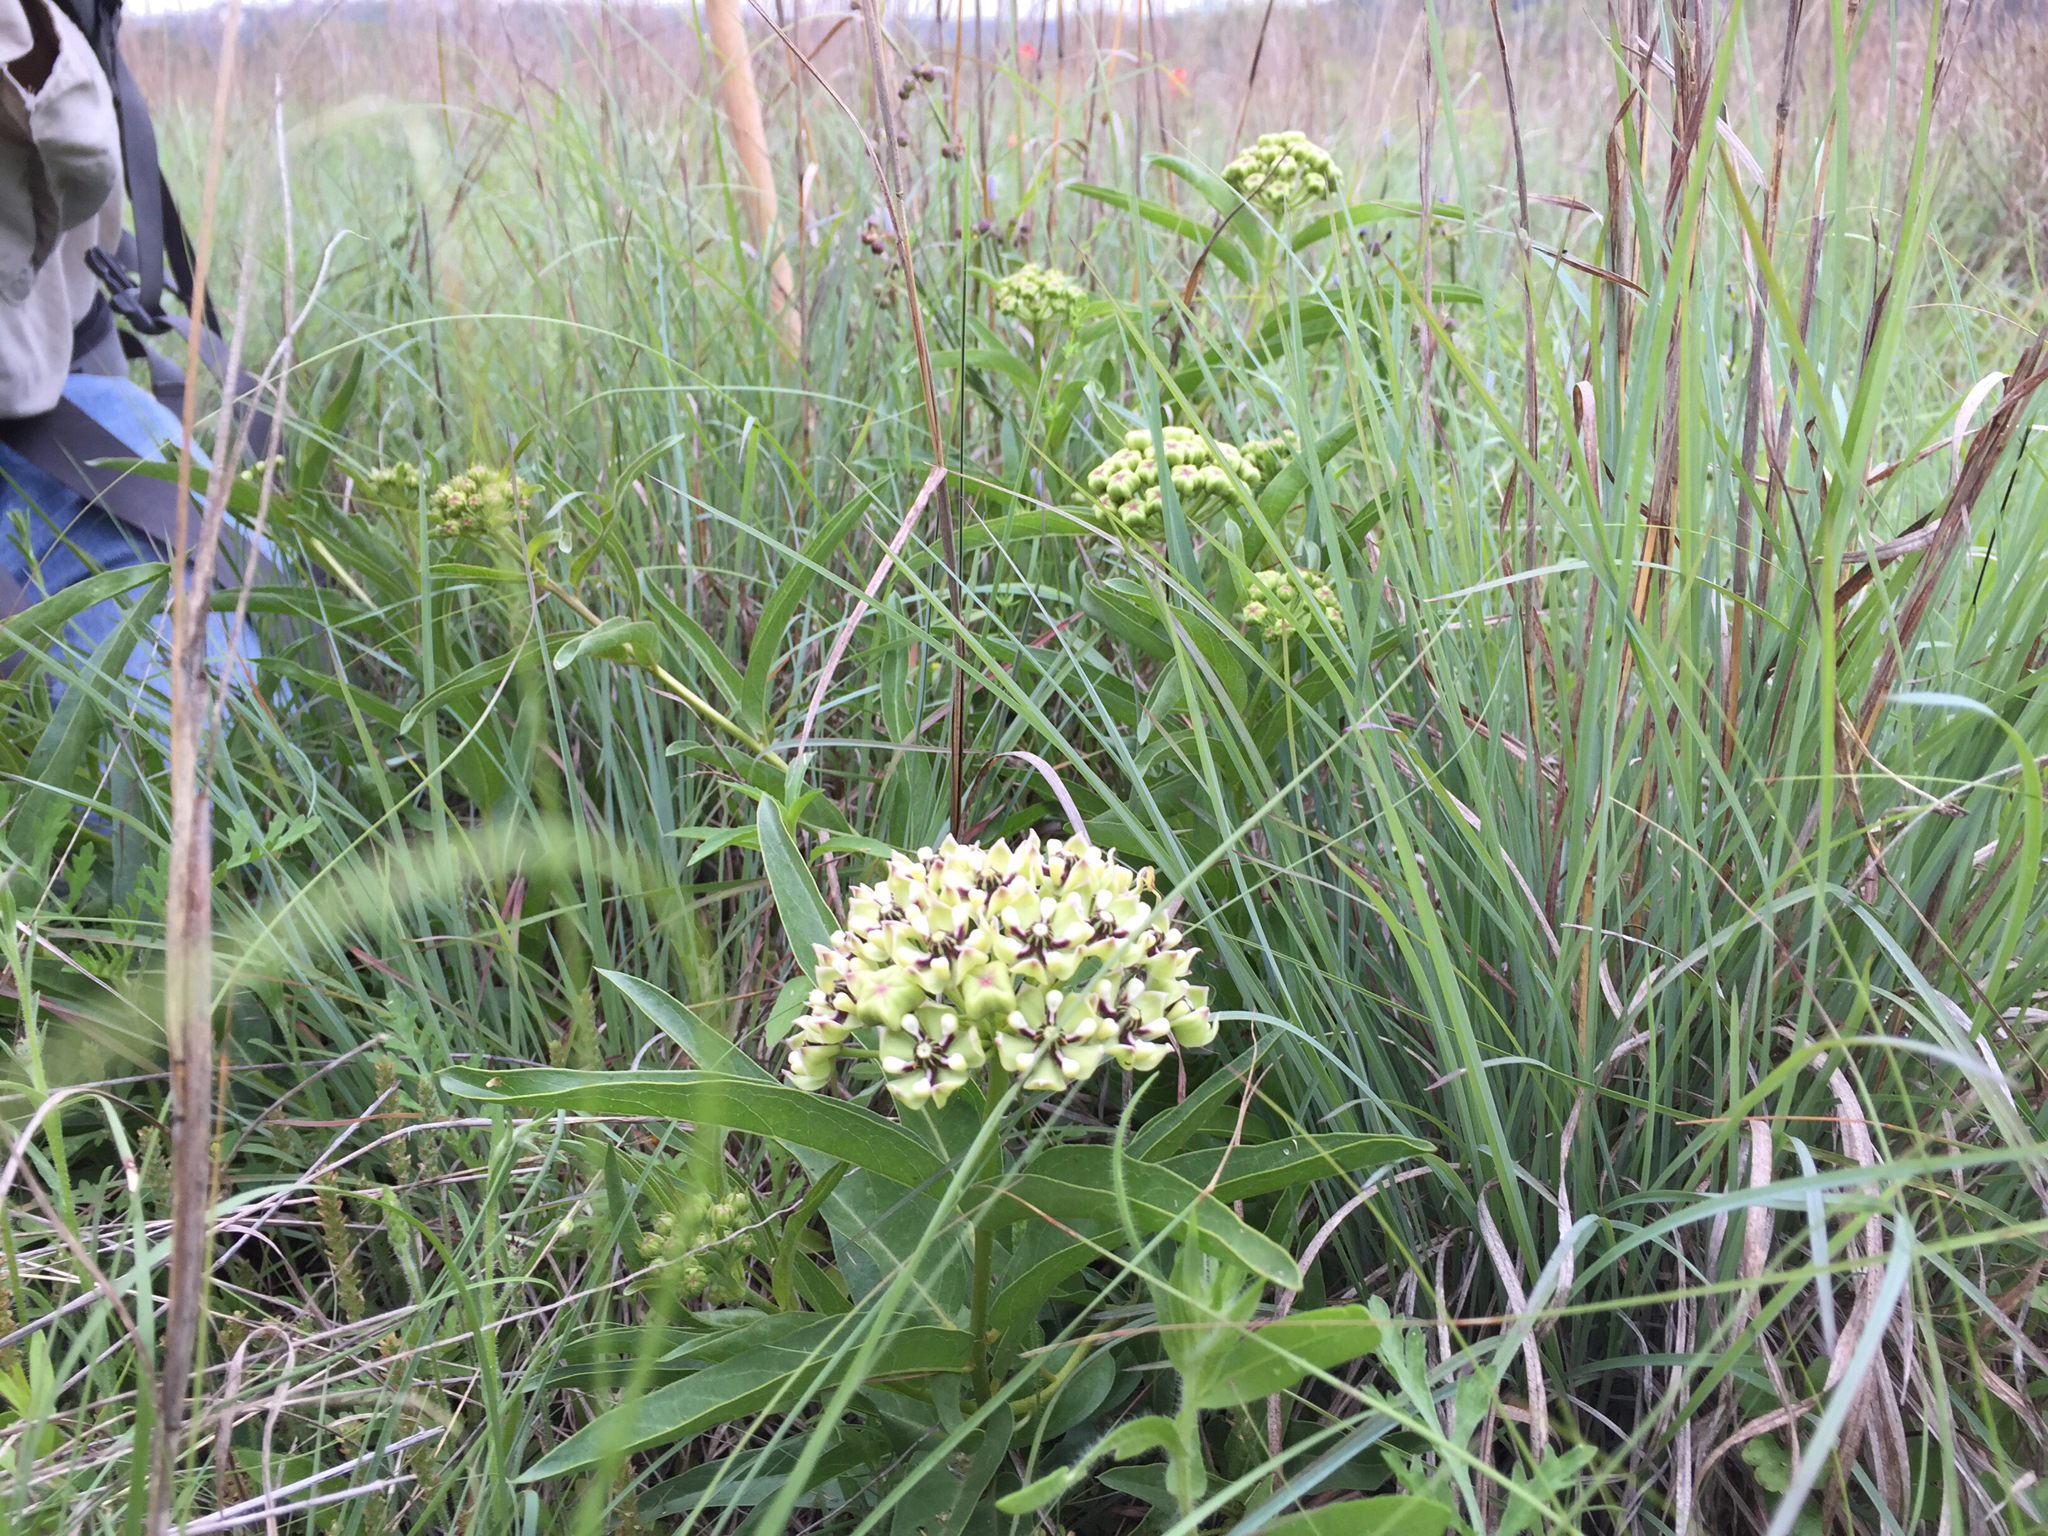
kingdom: Plantae
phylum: Tracheophyta
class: Magnoliopsida
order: Gentianales
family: Apocynaceae
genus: Asclepias
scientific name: Asclepias asperula
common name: Antelope horns
